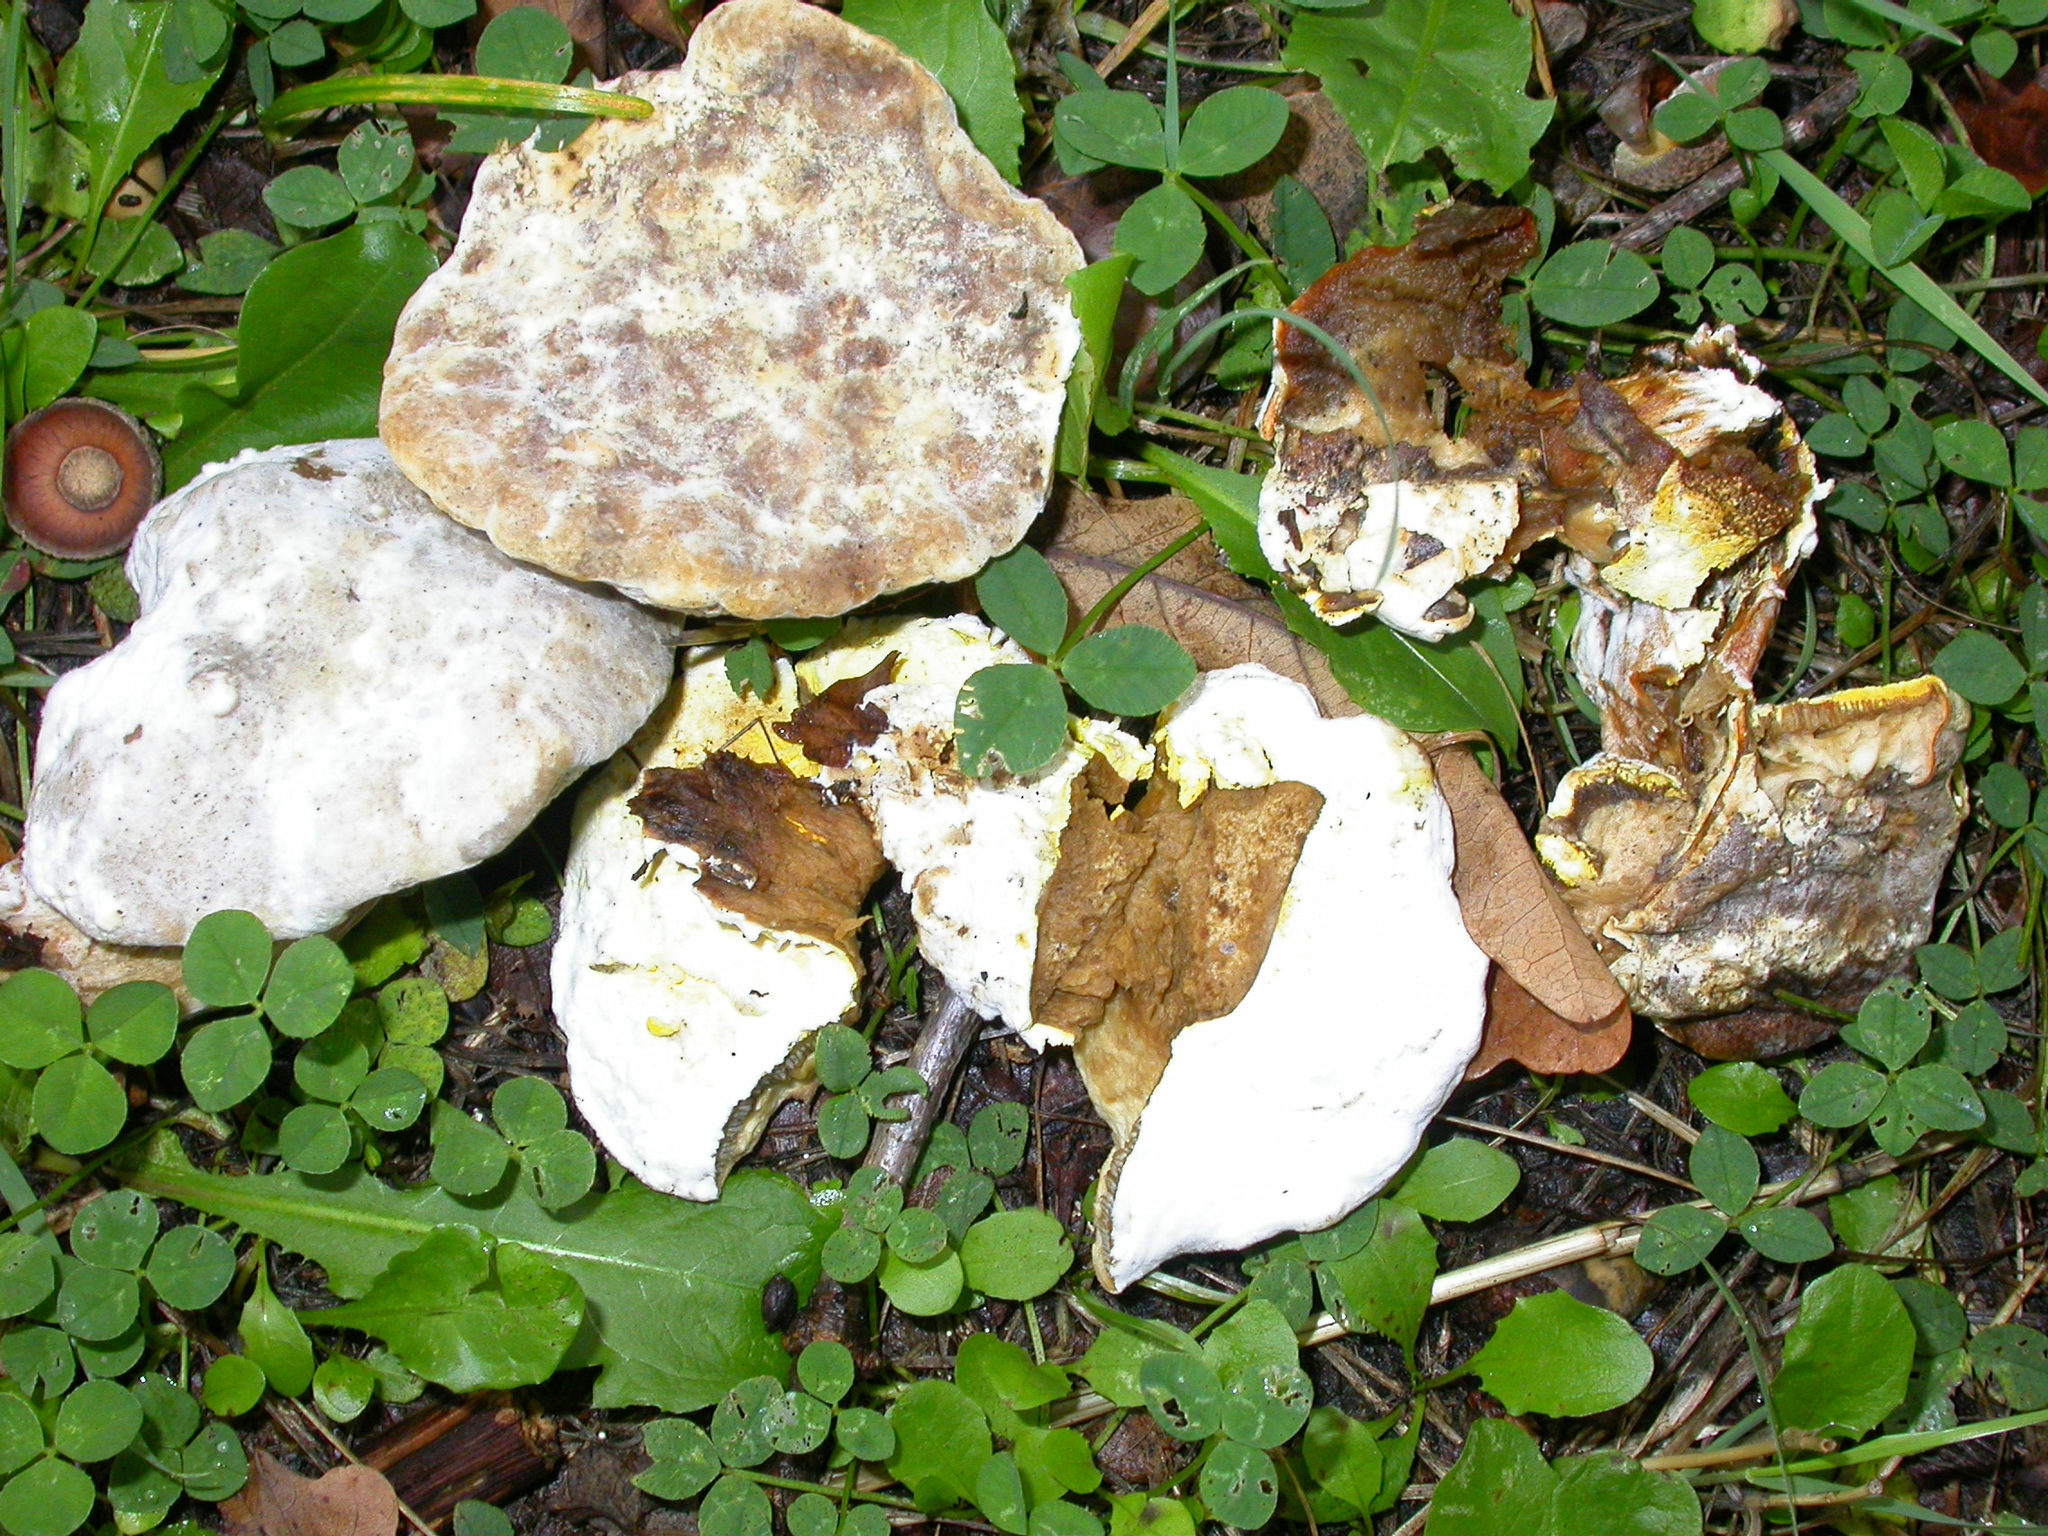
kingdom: Fungi
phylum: Ascomycota
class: Sordariomycetes
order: Hypocreales
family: Hypocreaceae
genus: Hypomyces
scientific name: Hypomyces chrysospermus
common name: Bolete mould
